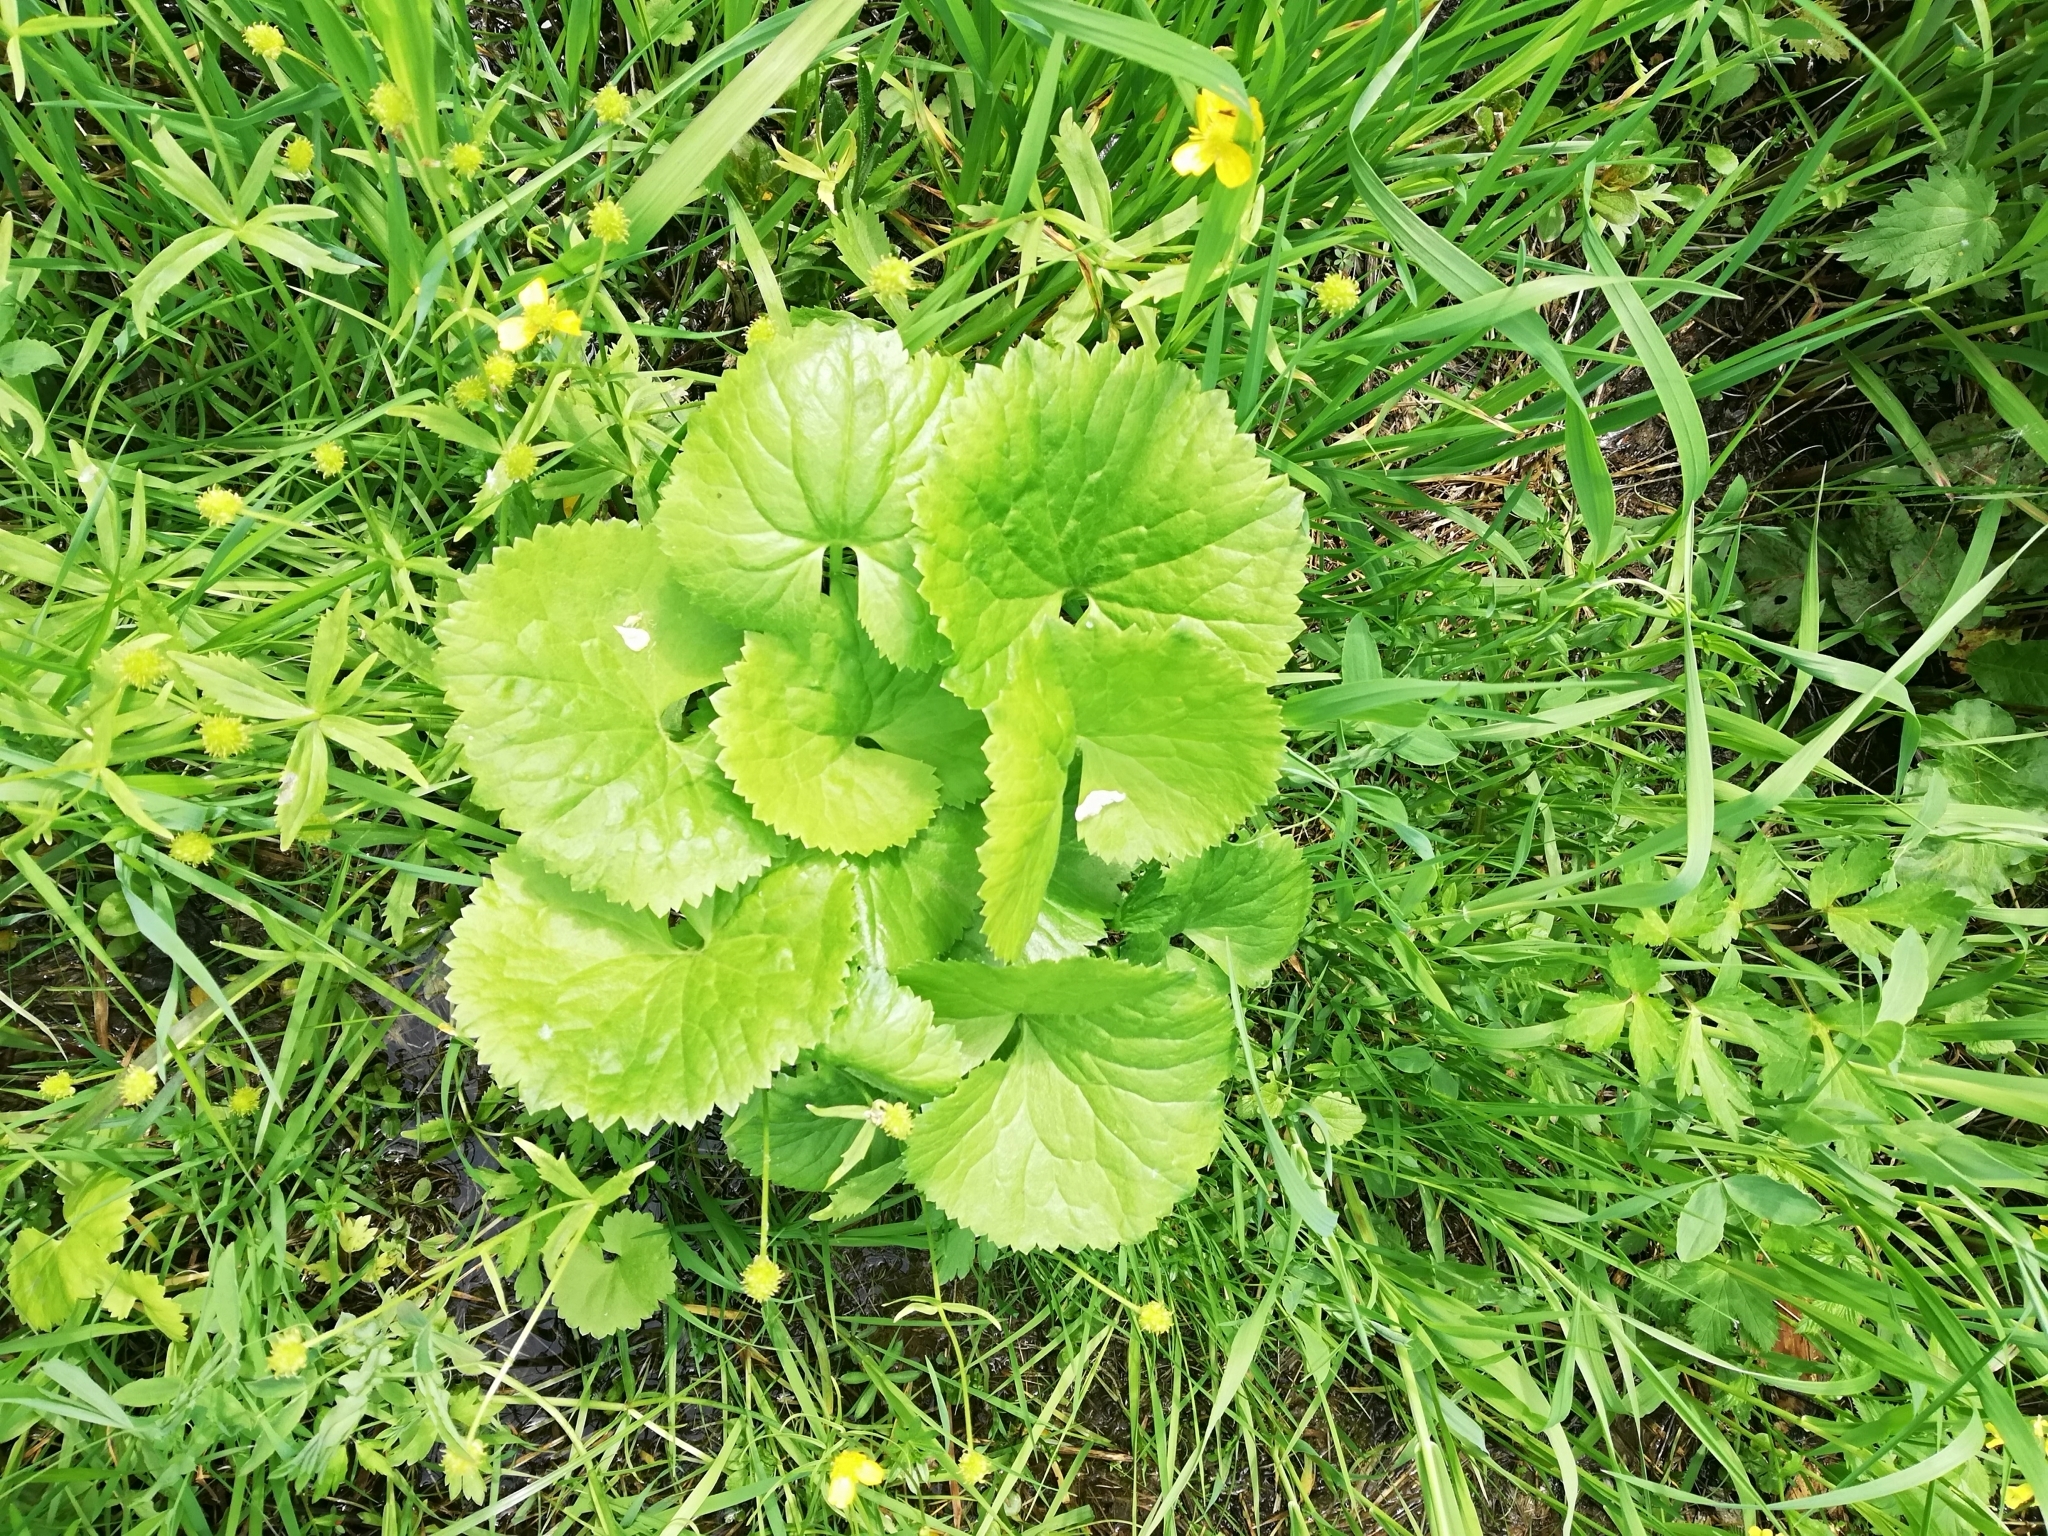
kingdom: Plantae
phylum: Tracheophyta
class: Magnoliopsida
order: Ranunculales
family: Ranunculaceae
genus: Ranunculus
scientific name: Ranunculus cassubicus
